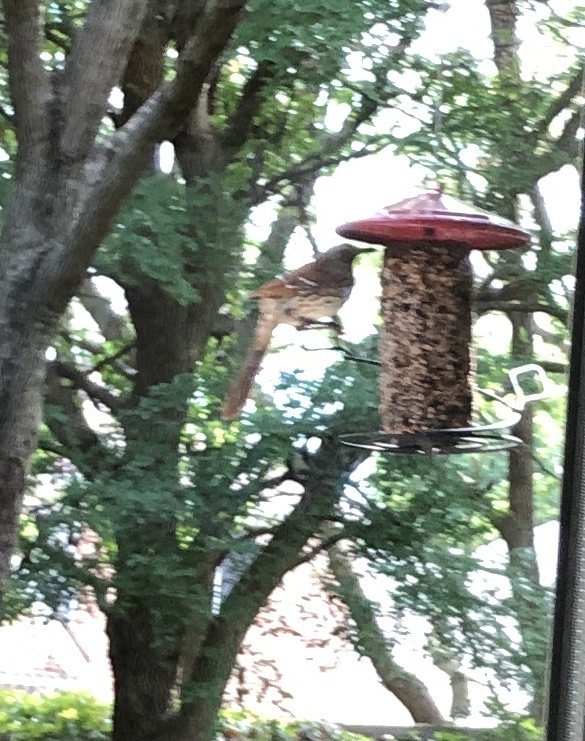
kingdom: Animalia
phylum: Chordata
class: Aves
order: Passeriformes
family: Mimidae
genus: Toxostoma
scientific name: Toxostoma rufum
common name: Brown thrasher
